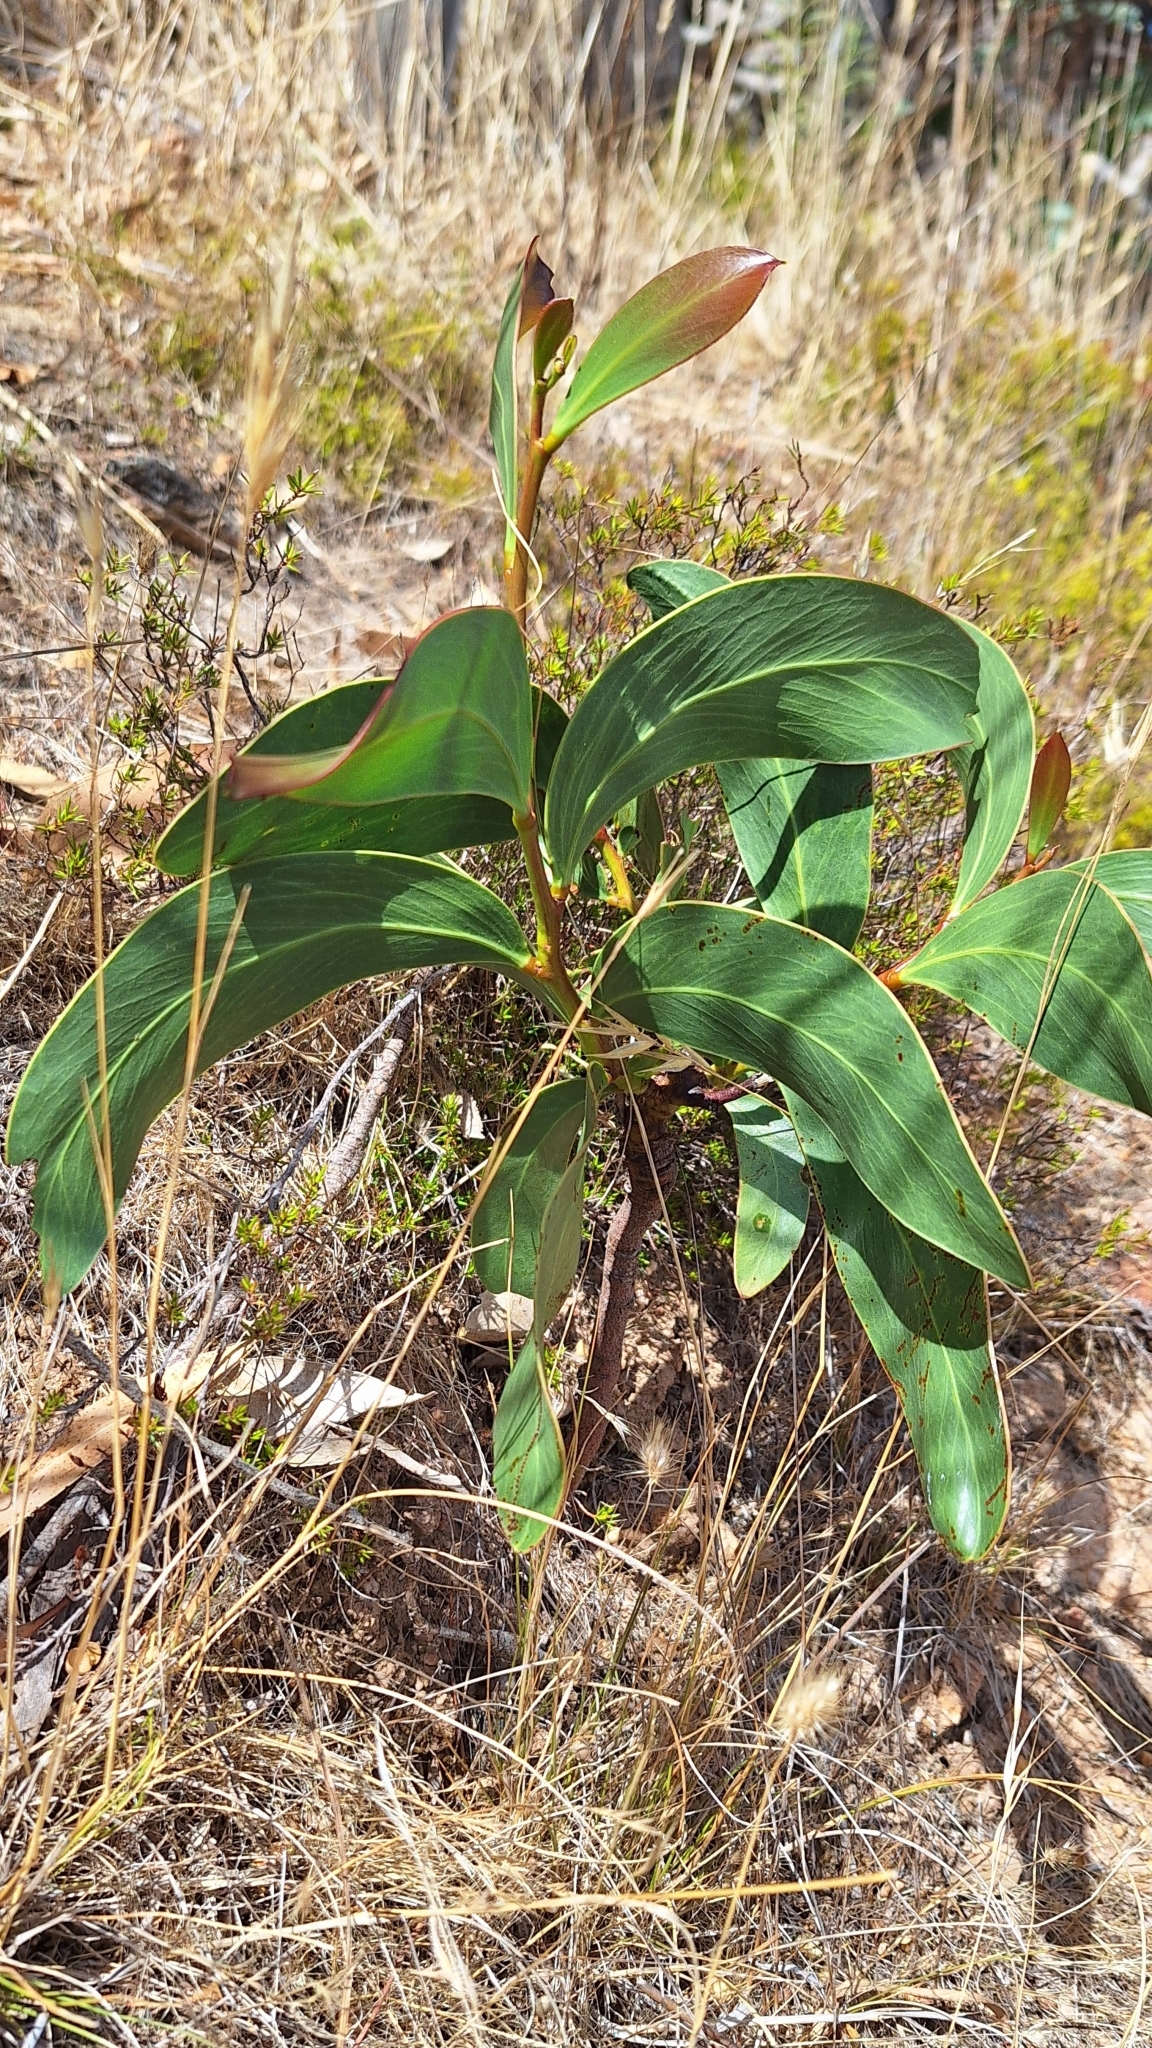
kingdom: Plantae
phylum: Tracheophyta
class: Magnoliopsida
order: Fabales
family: Fabaceae
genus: Acacia
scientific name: Acacia pycnantha
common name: Golden wattle
